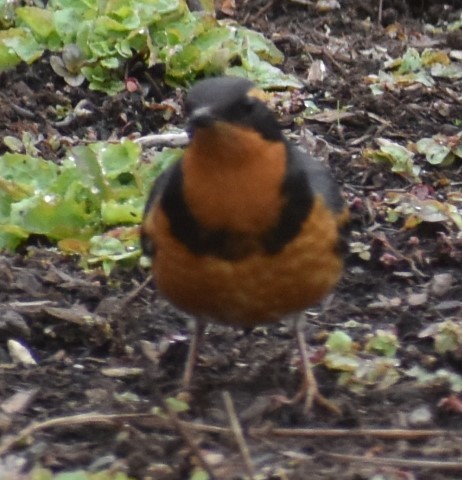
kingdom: Animalia
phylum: Chordata
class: Aves
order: Passeriformes
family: Turdidae
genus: Ixoreus
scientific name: Ixoreus naevius
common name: Varied thrush
